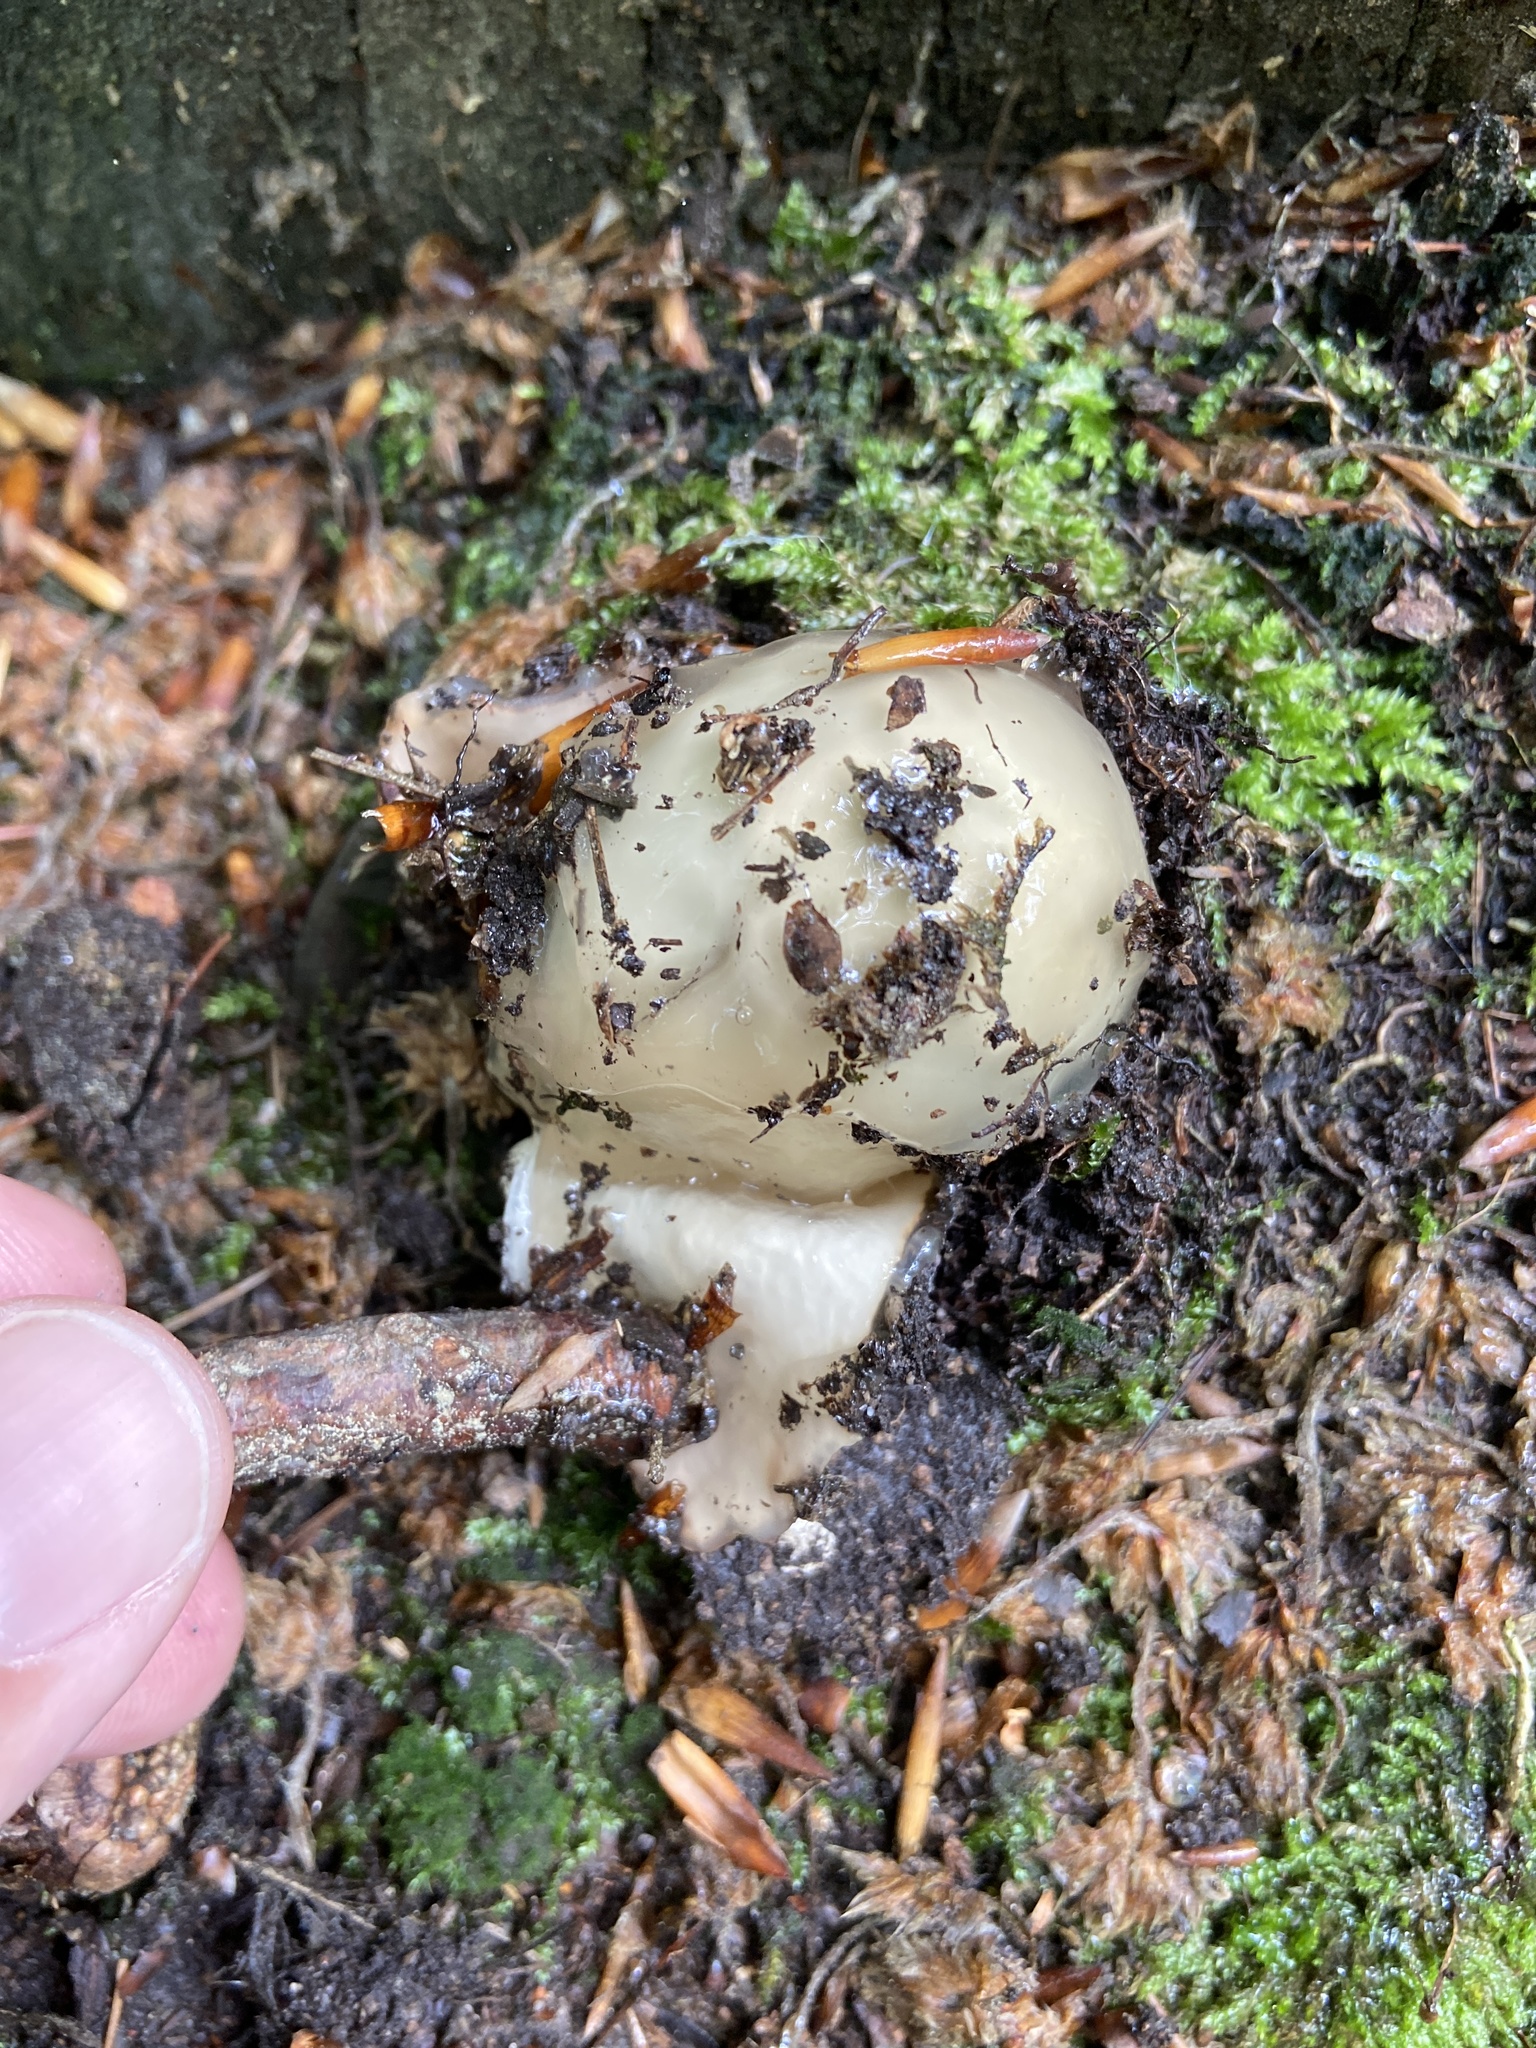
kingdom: Fungi
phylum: Basidiomycota
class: Agaricomycetes
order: Phallales
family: Phallaceae
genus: Phallus
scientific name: Phallus impudicus
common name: Common stinkhorn
